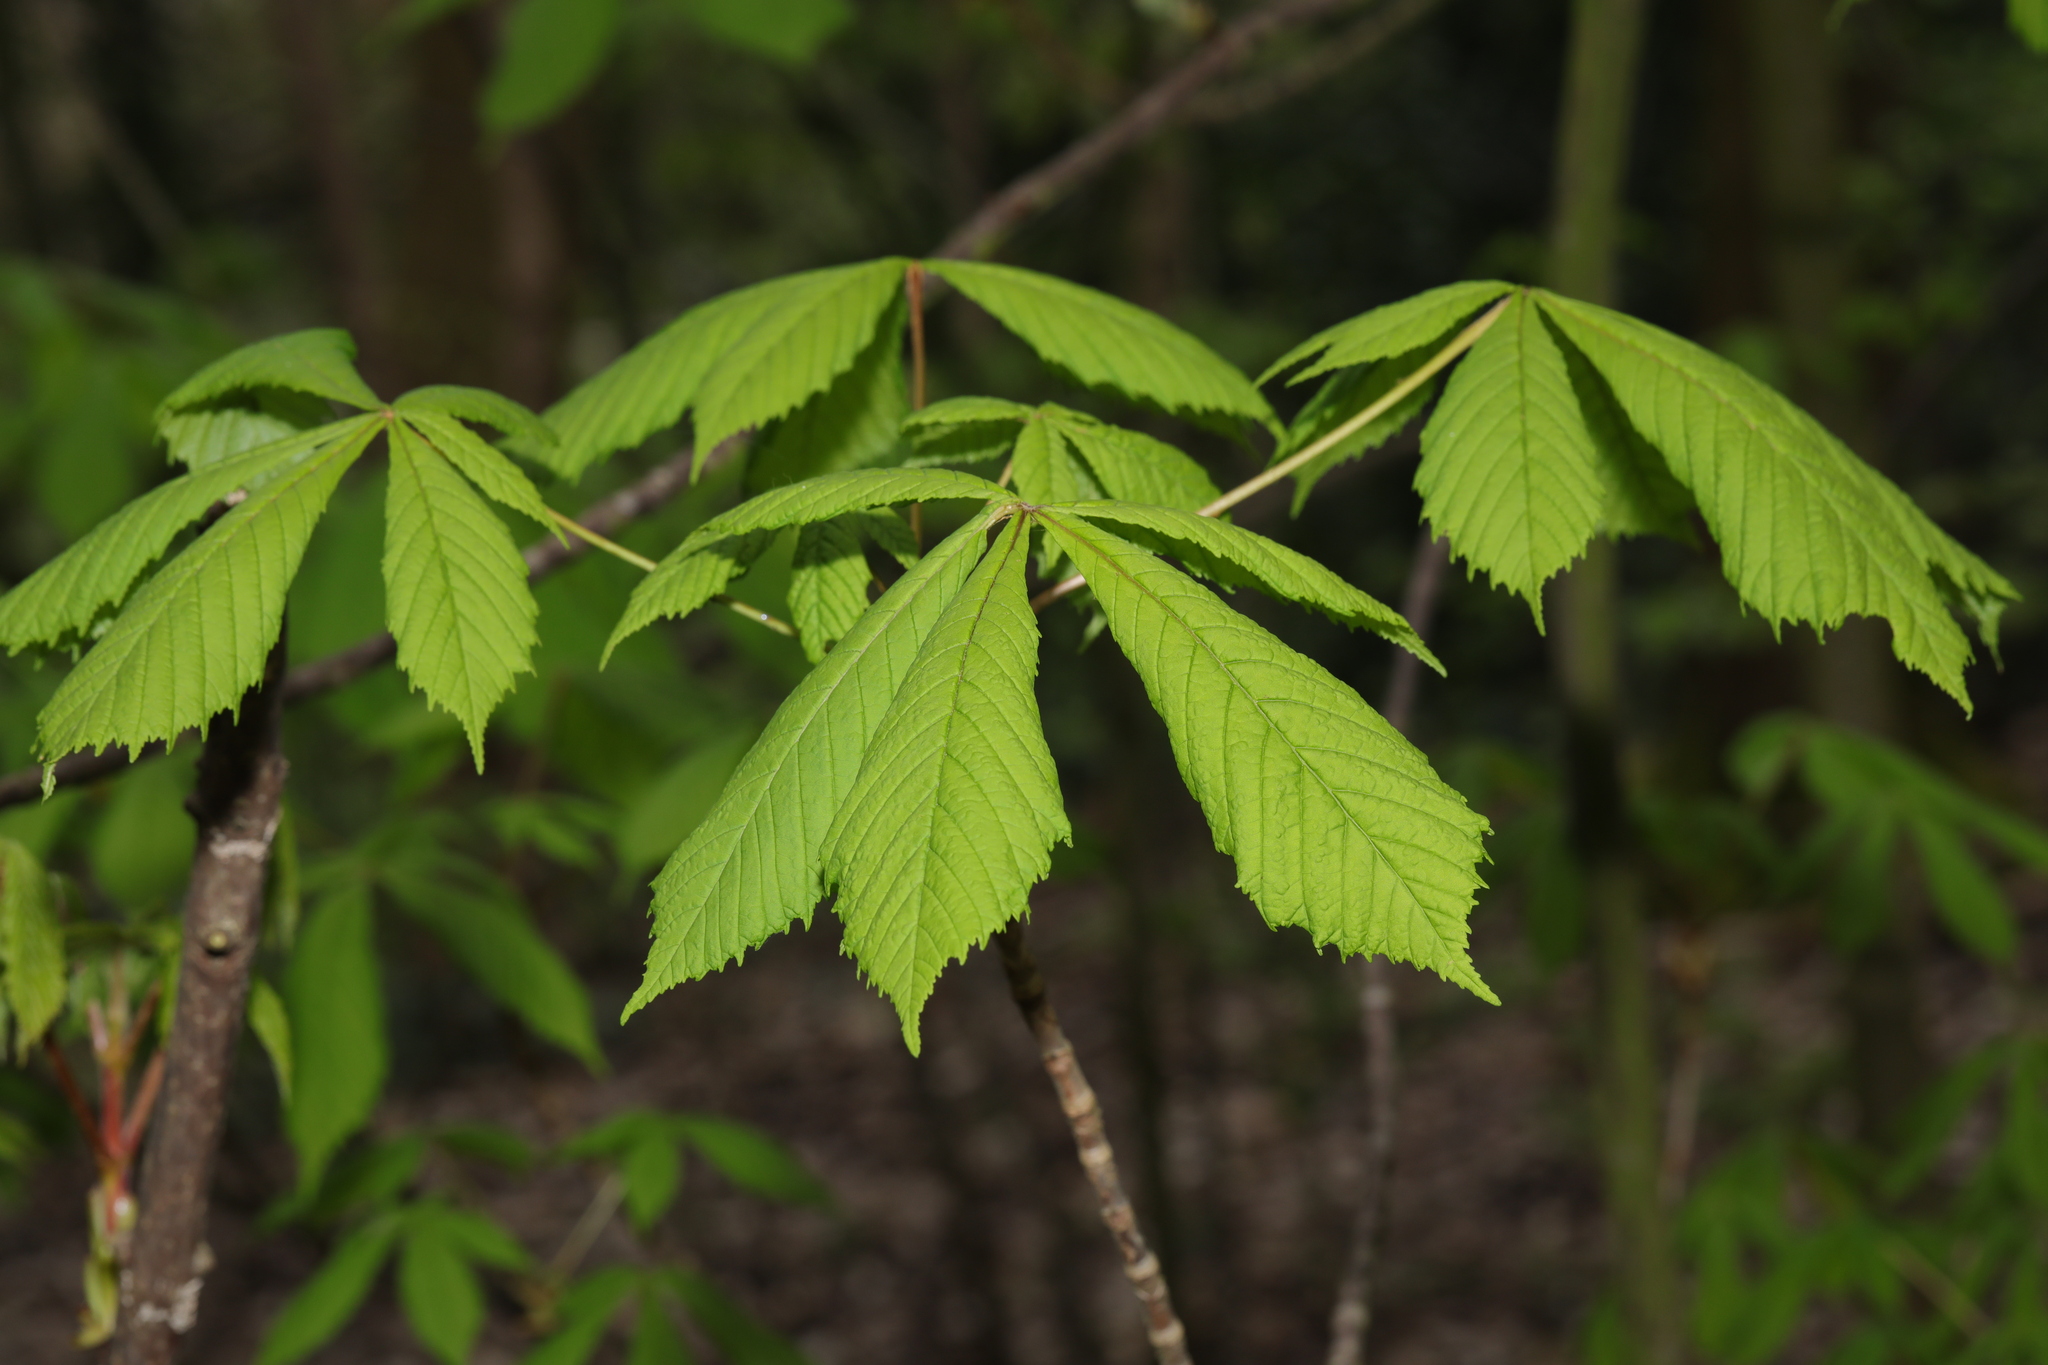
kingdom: Plantae
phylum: Tracheophyta
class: Magnoliopsida
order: Sapindales
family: Sapindaceae
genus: Aesculus
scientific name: Aesculus hippocastanum
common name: Horse-chestnut
